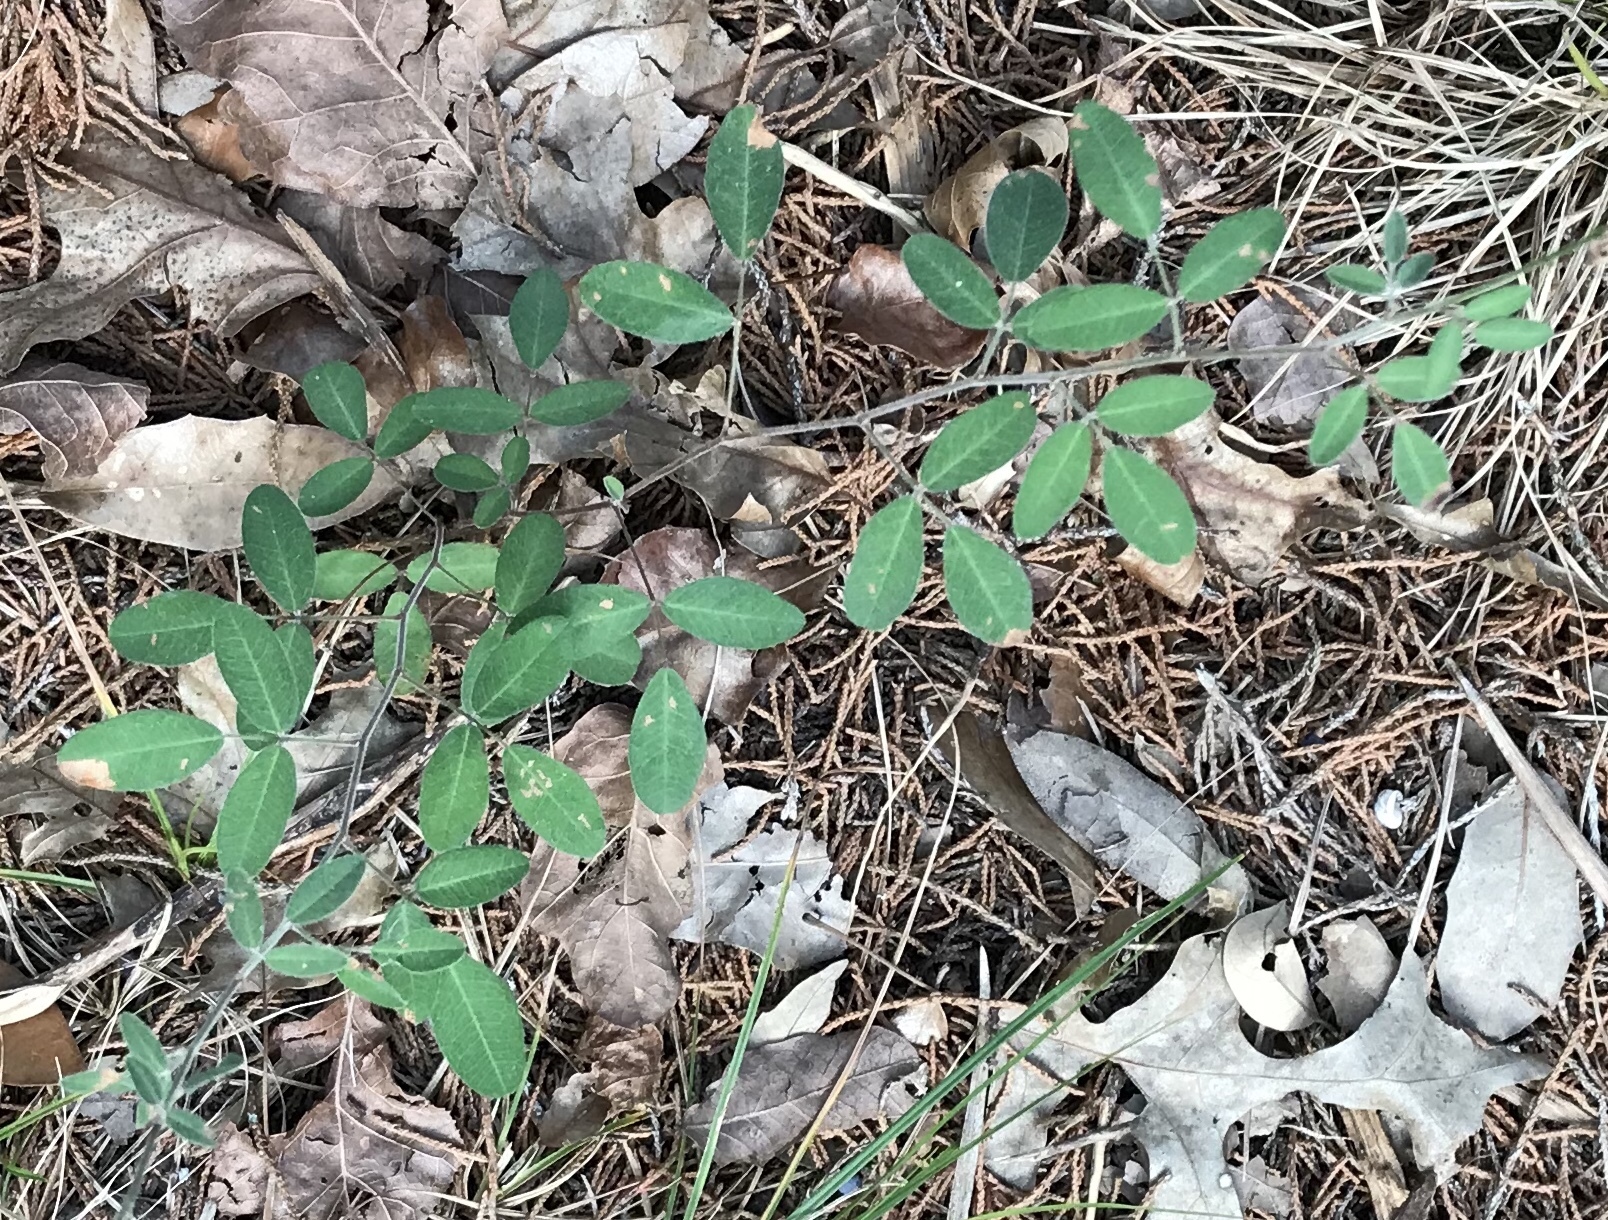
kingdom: Plantae
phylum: Tracheophyta
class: Magnoliopsida
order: Fabales
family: Fabaceae
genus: Lespedeza
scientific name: Lespedeza texana
